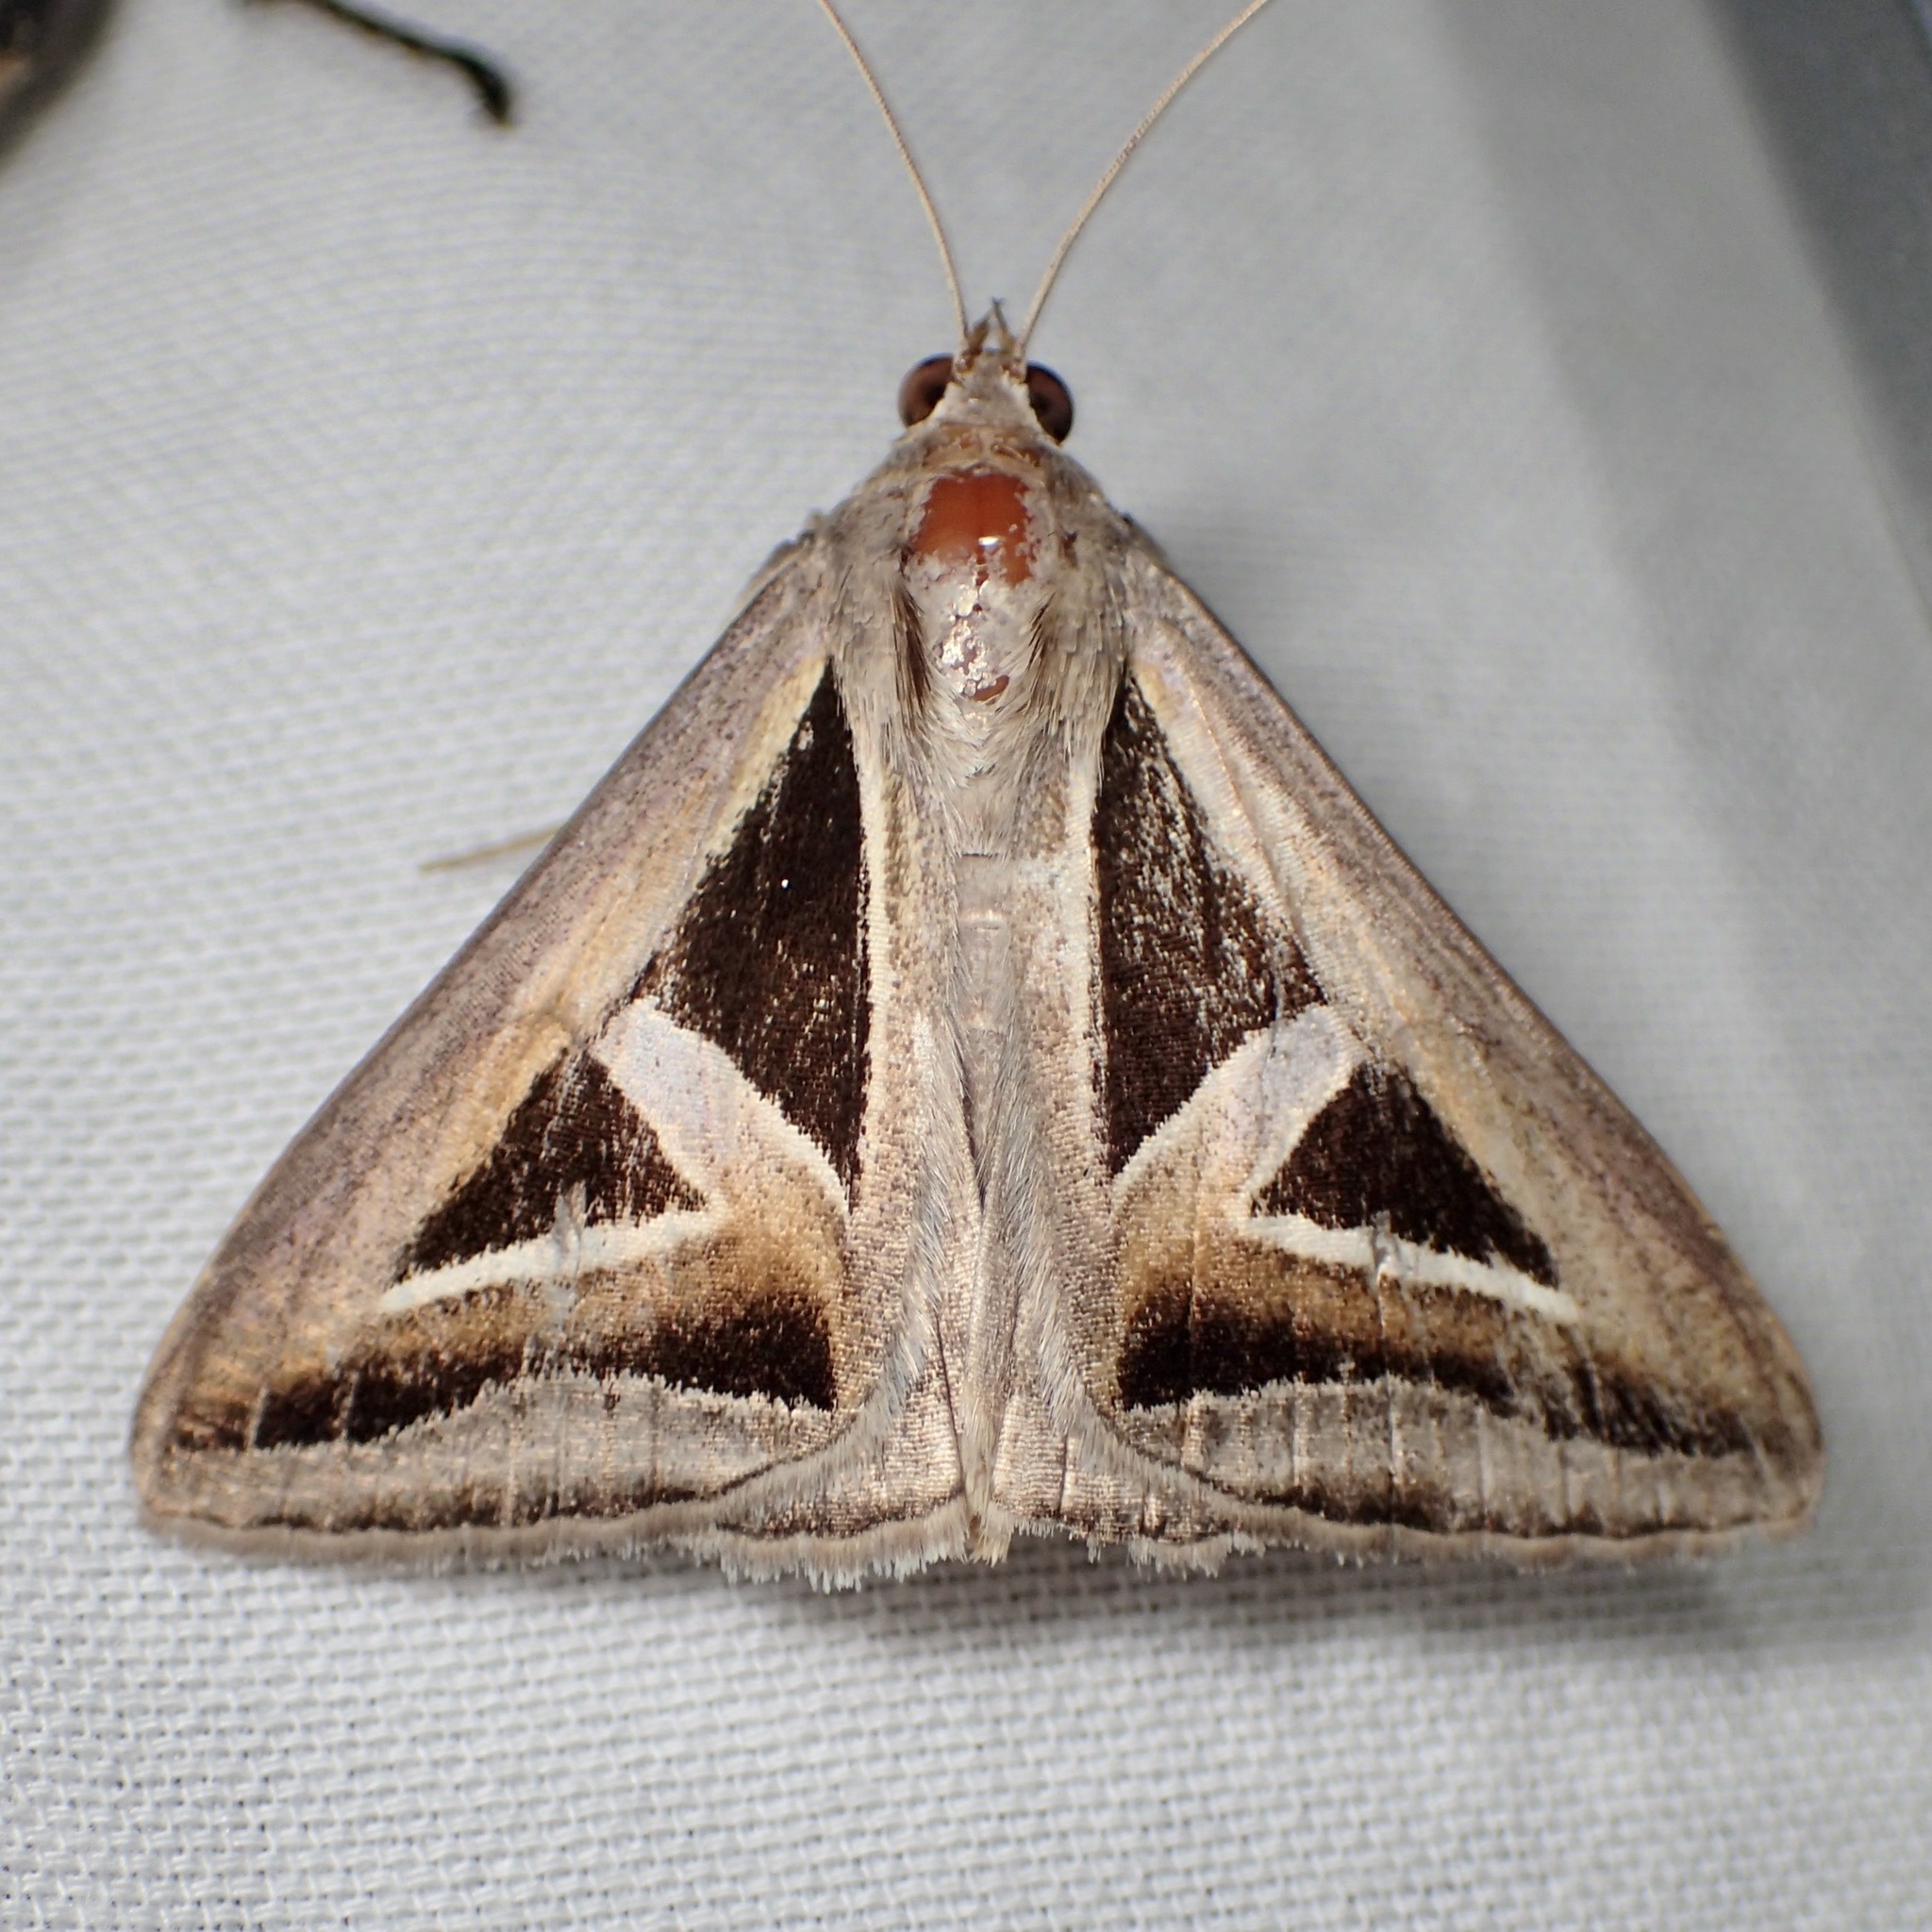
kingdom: Animalia
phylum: Arthropoda
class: Insecta
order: Lepidoptera
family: Erebidae
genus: Trigonodes
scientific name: Trigonodes hyppasia
